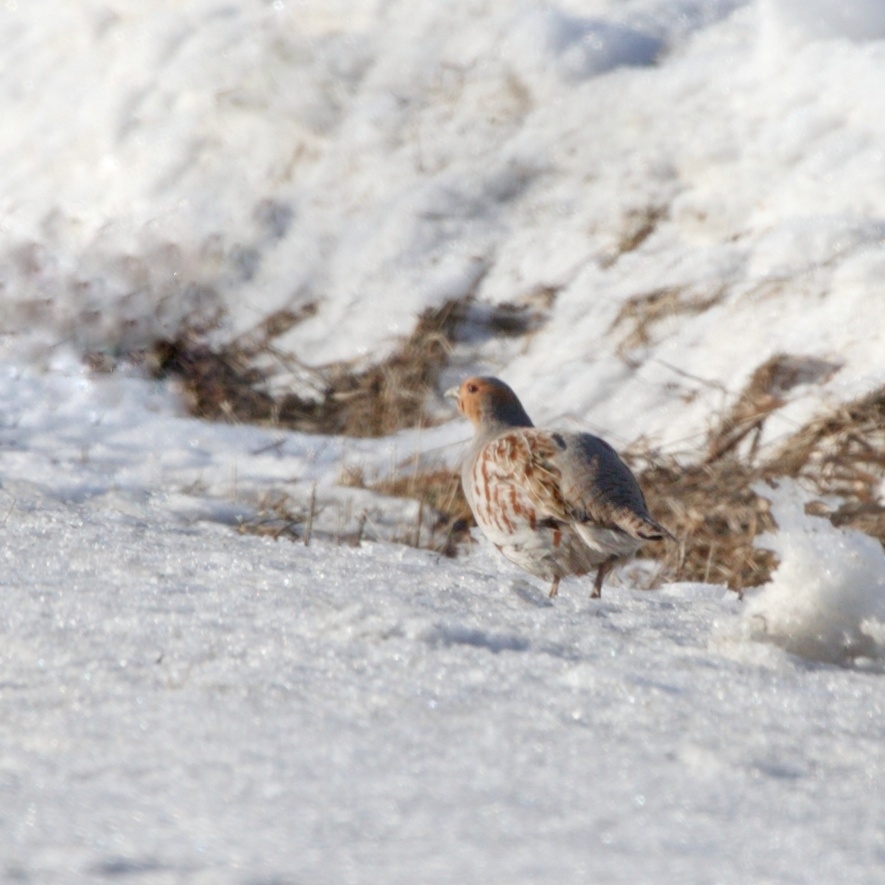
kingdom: Animalia
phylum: Chordata
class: Aves
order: Galliformes
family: Phasianidae
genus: Perdix
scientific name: Perdix perdix
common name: Grey partridge
